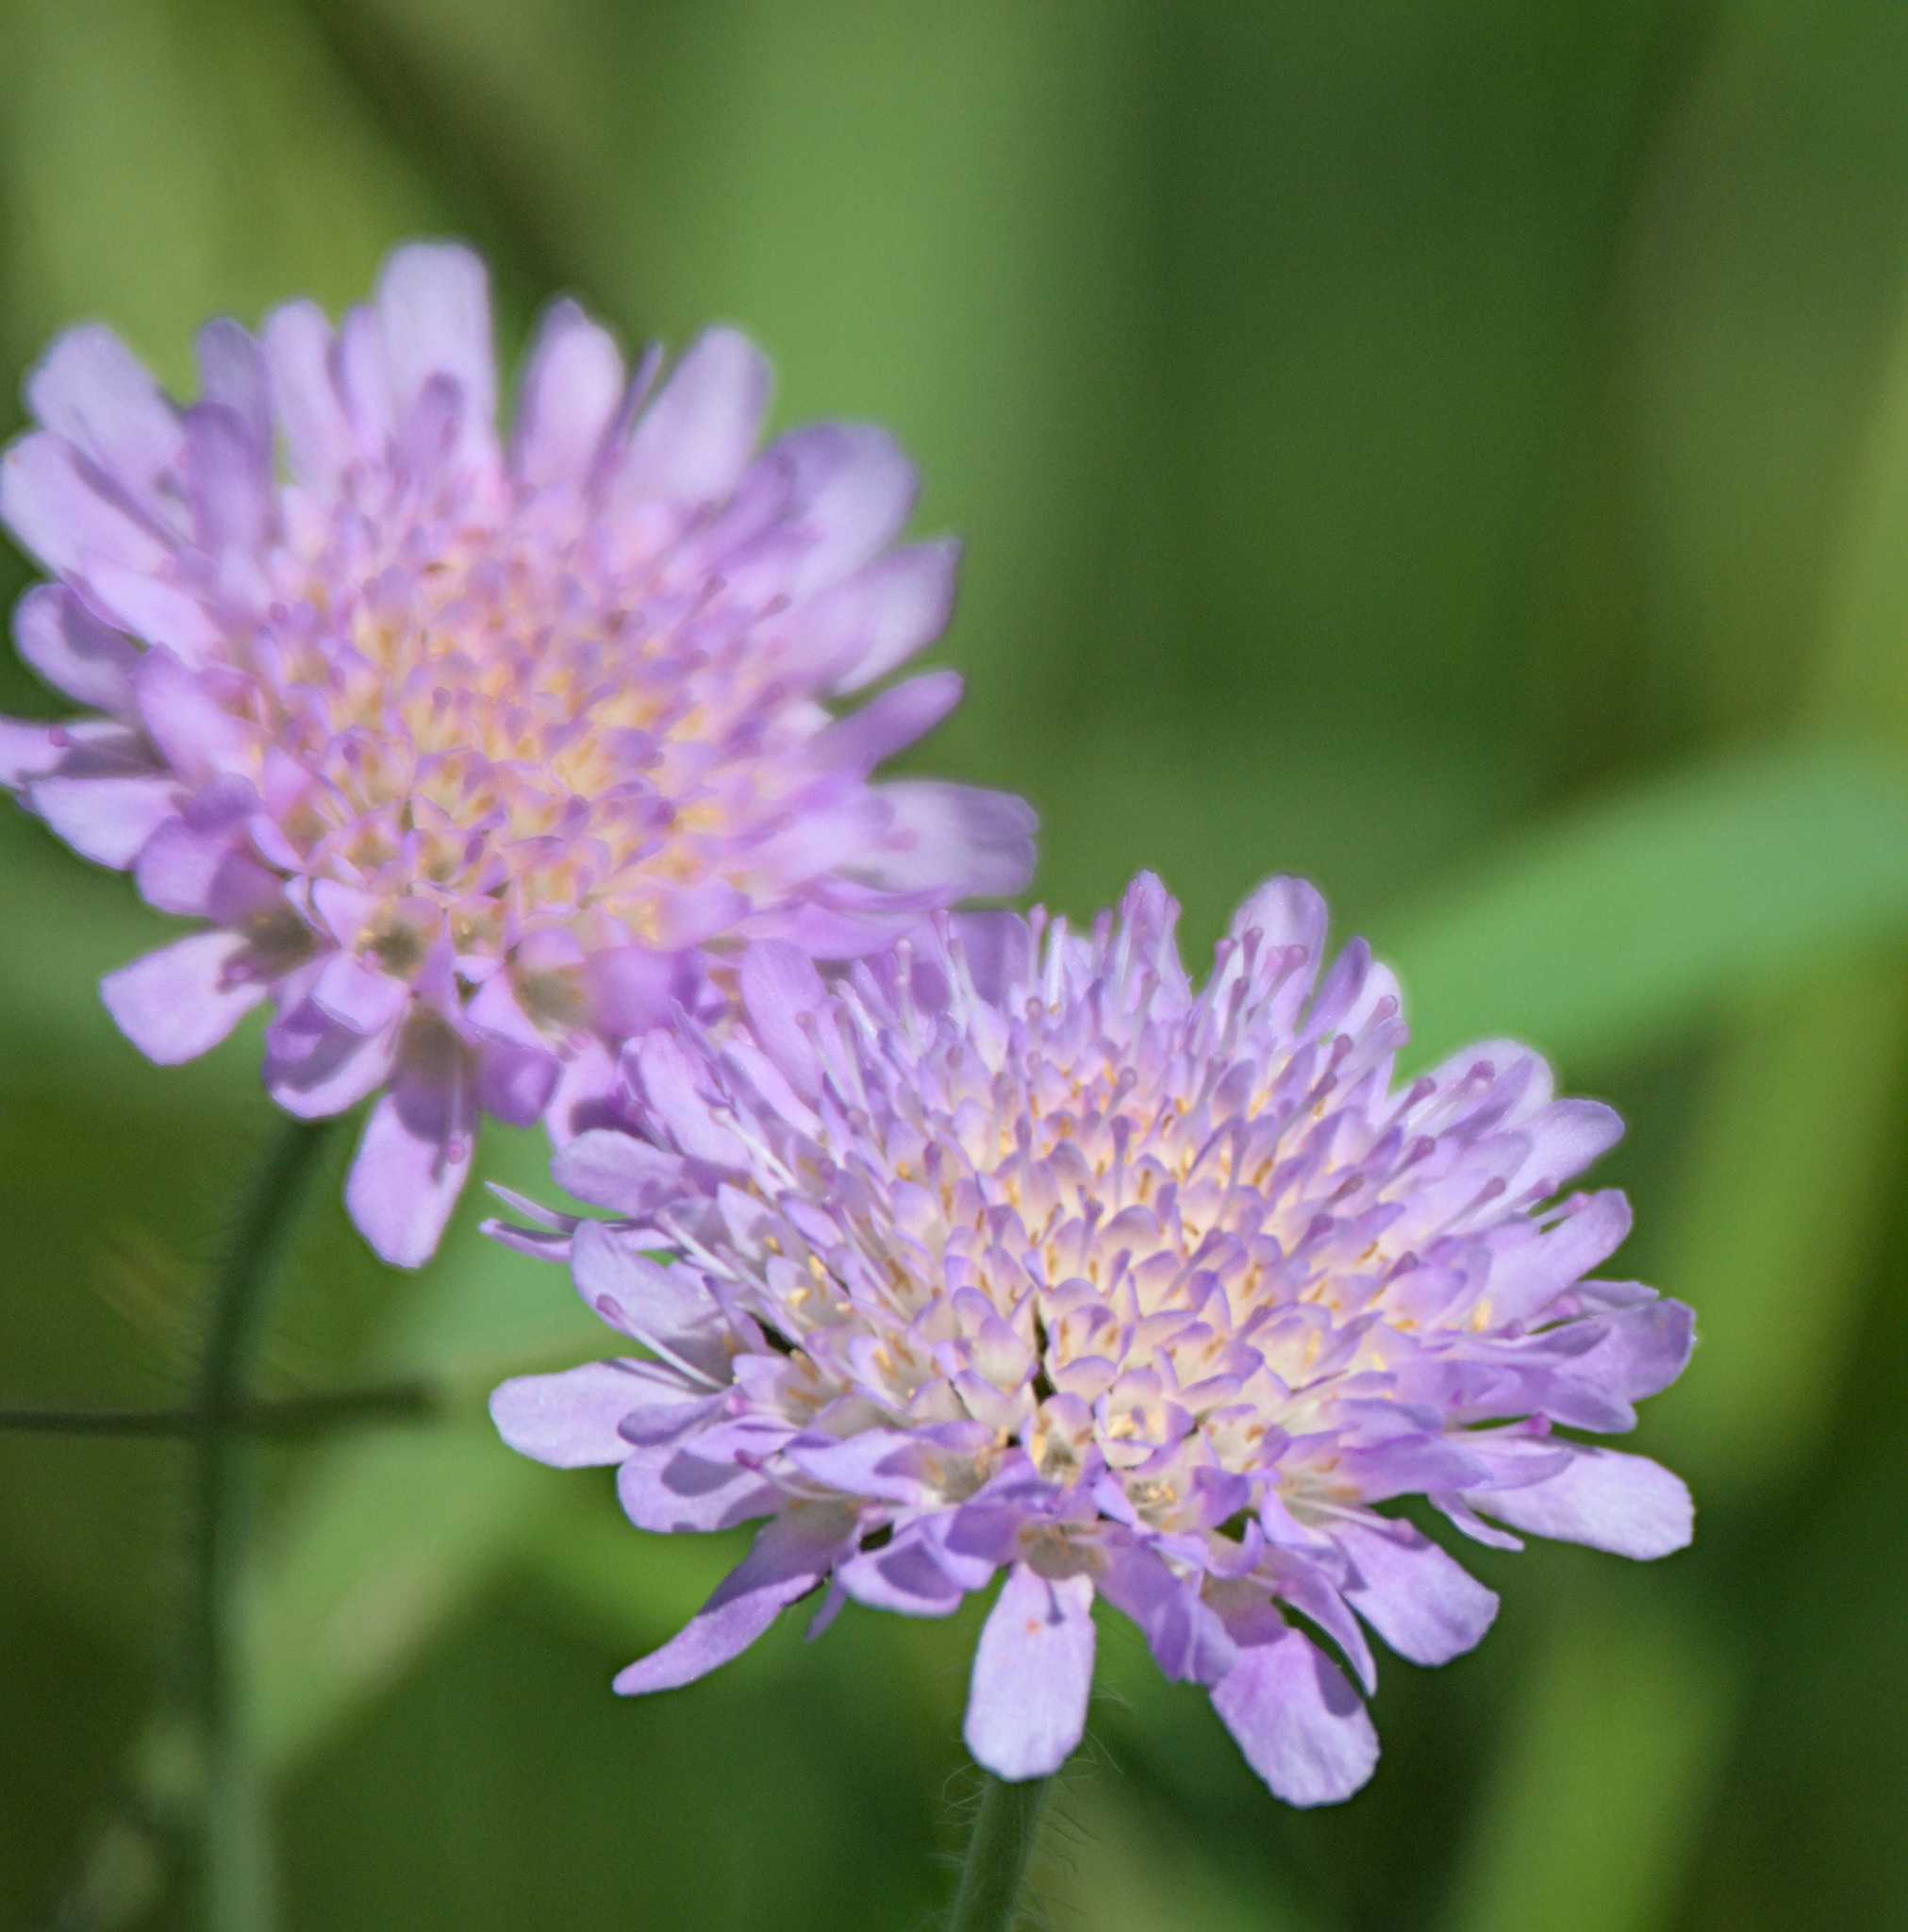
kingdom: Plantae
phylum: Tracheophyta
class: Magnoliopsida
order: Dipsacales
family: Caprifoliaceae
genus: Knautia
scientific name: Knautia arvensis
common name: Field scabiosa
